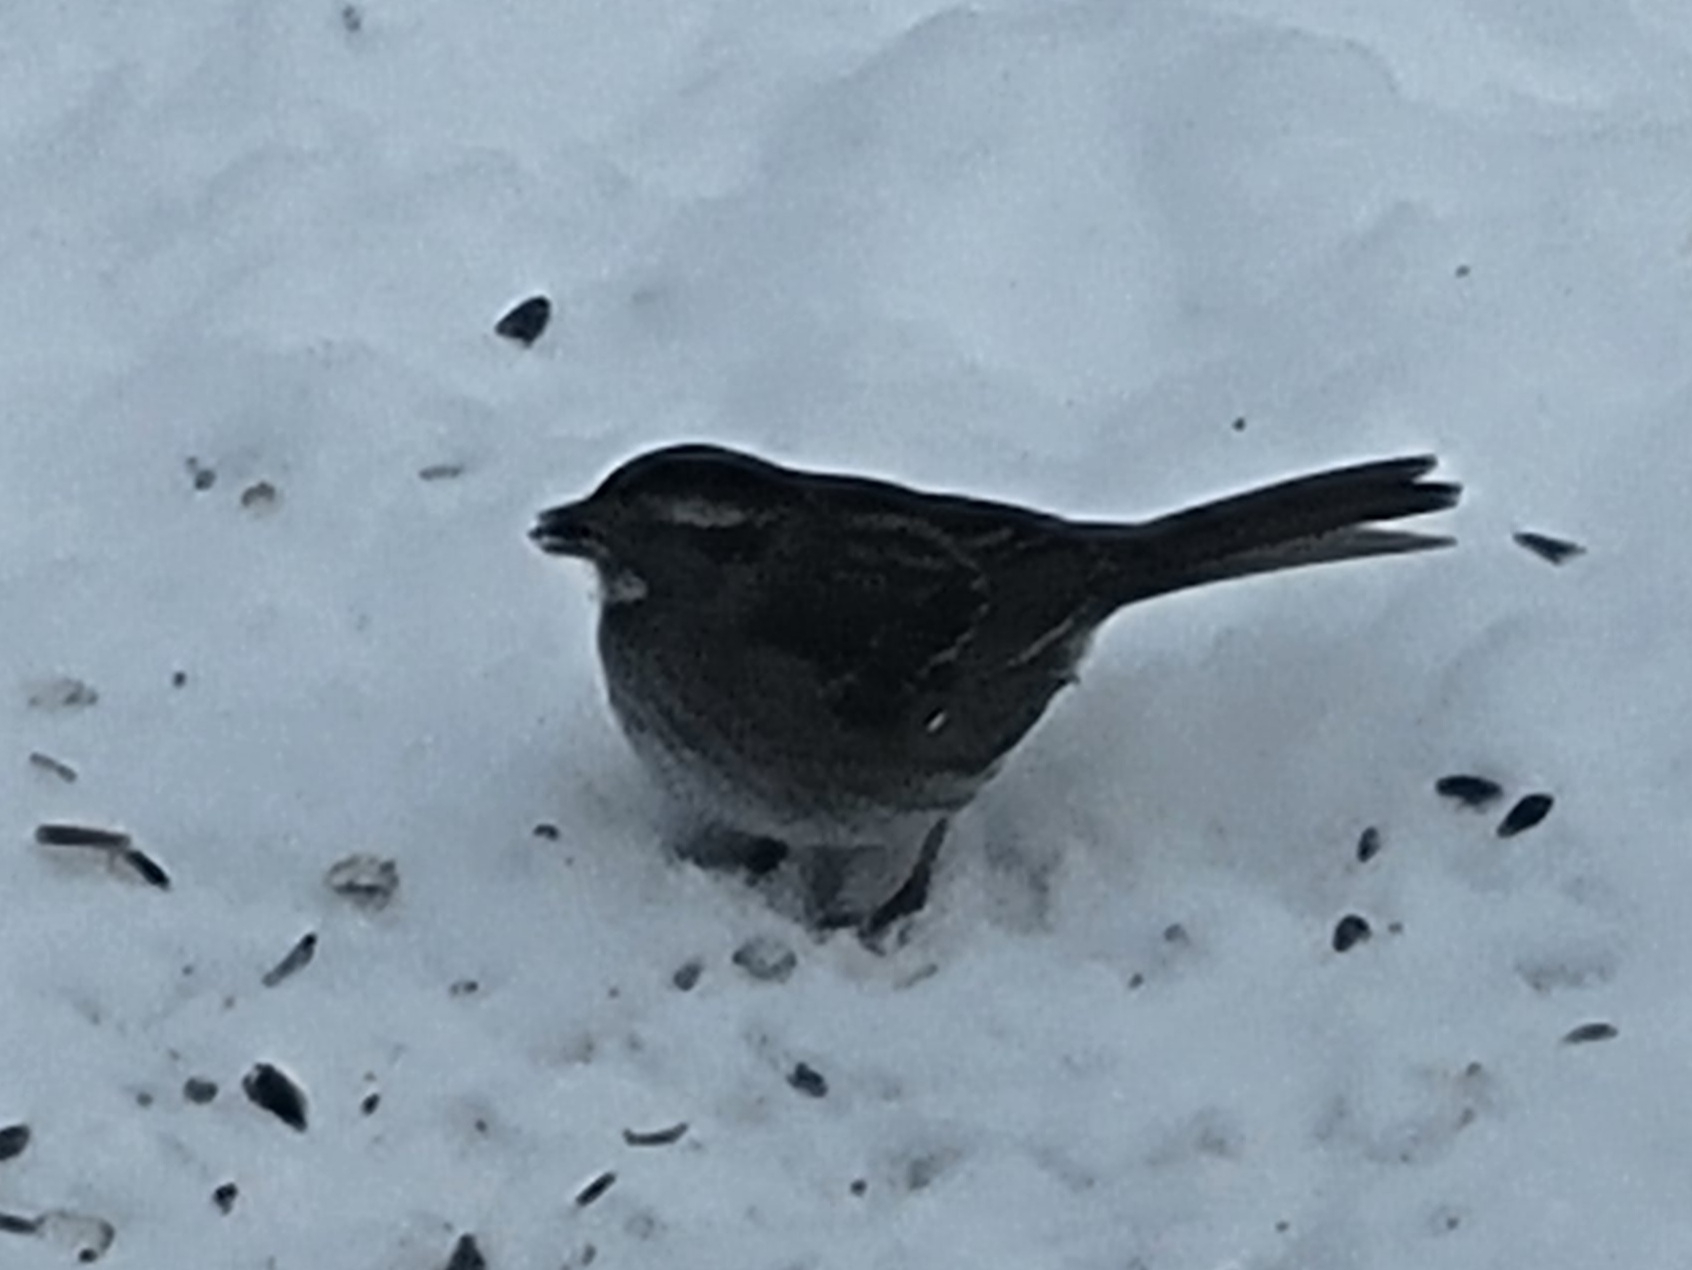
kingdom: Animalia
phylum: Chordata
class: Aves
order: Passeriformes
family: Passerellidae
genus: Zonotrichia
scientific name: Zonotrichia albicollis
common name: White-throated sparrow
